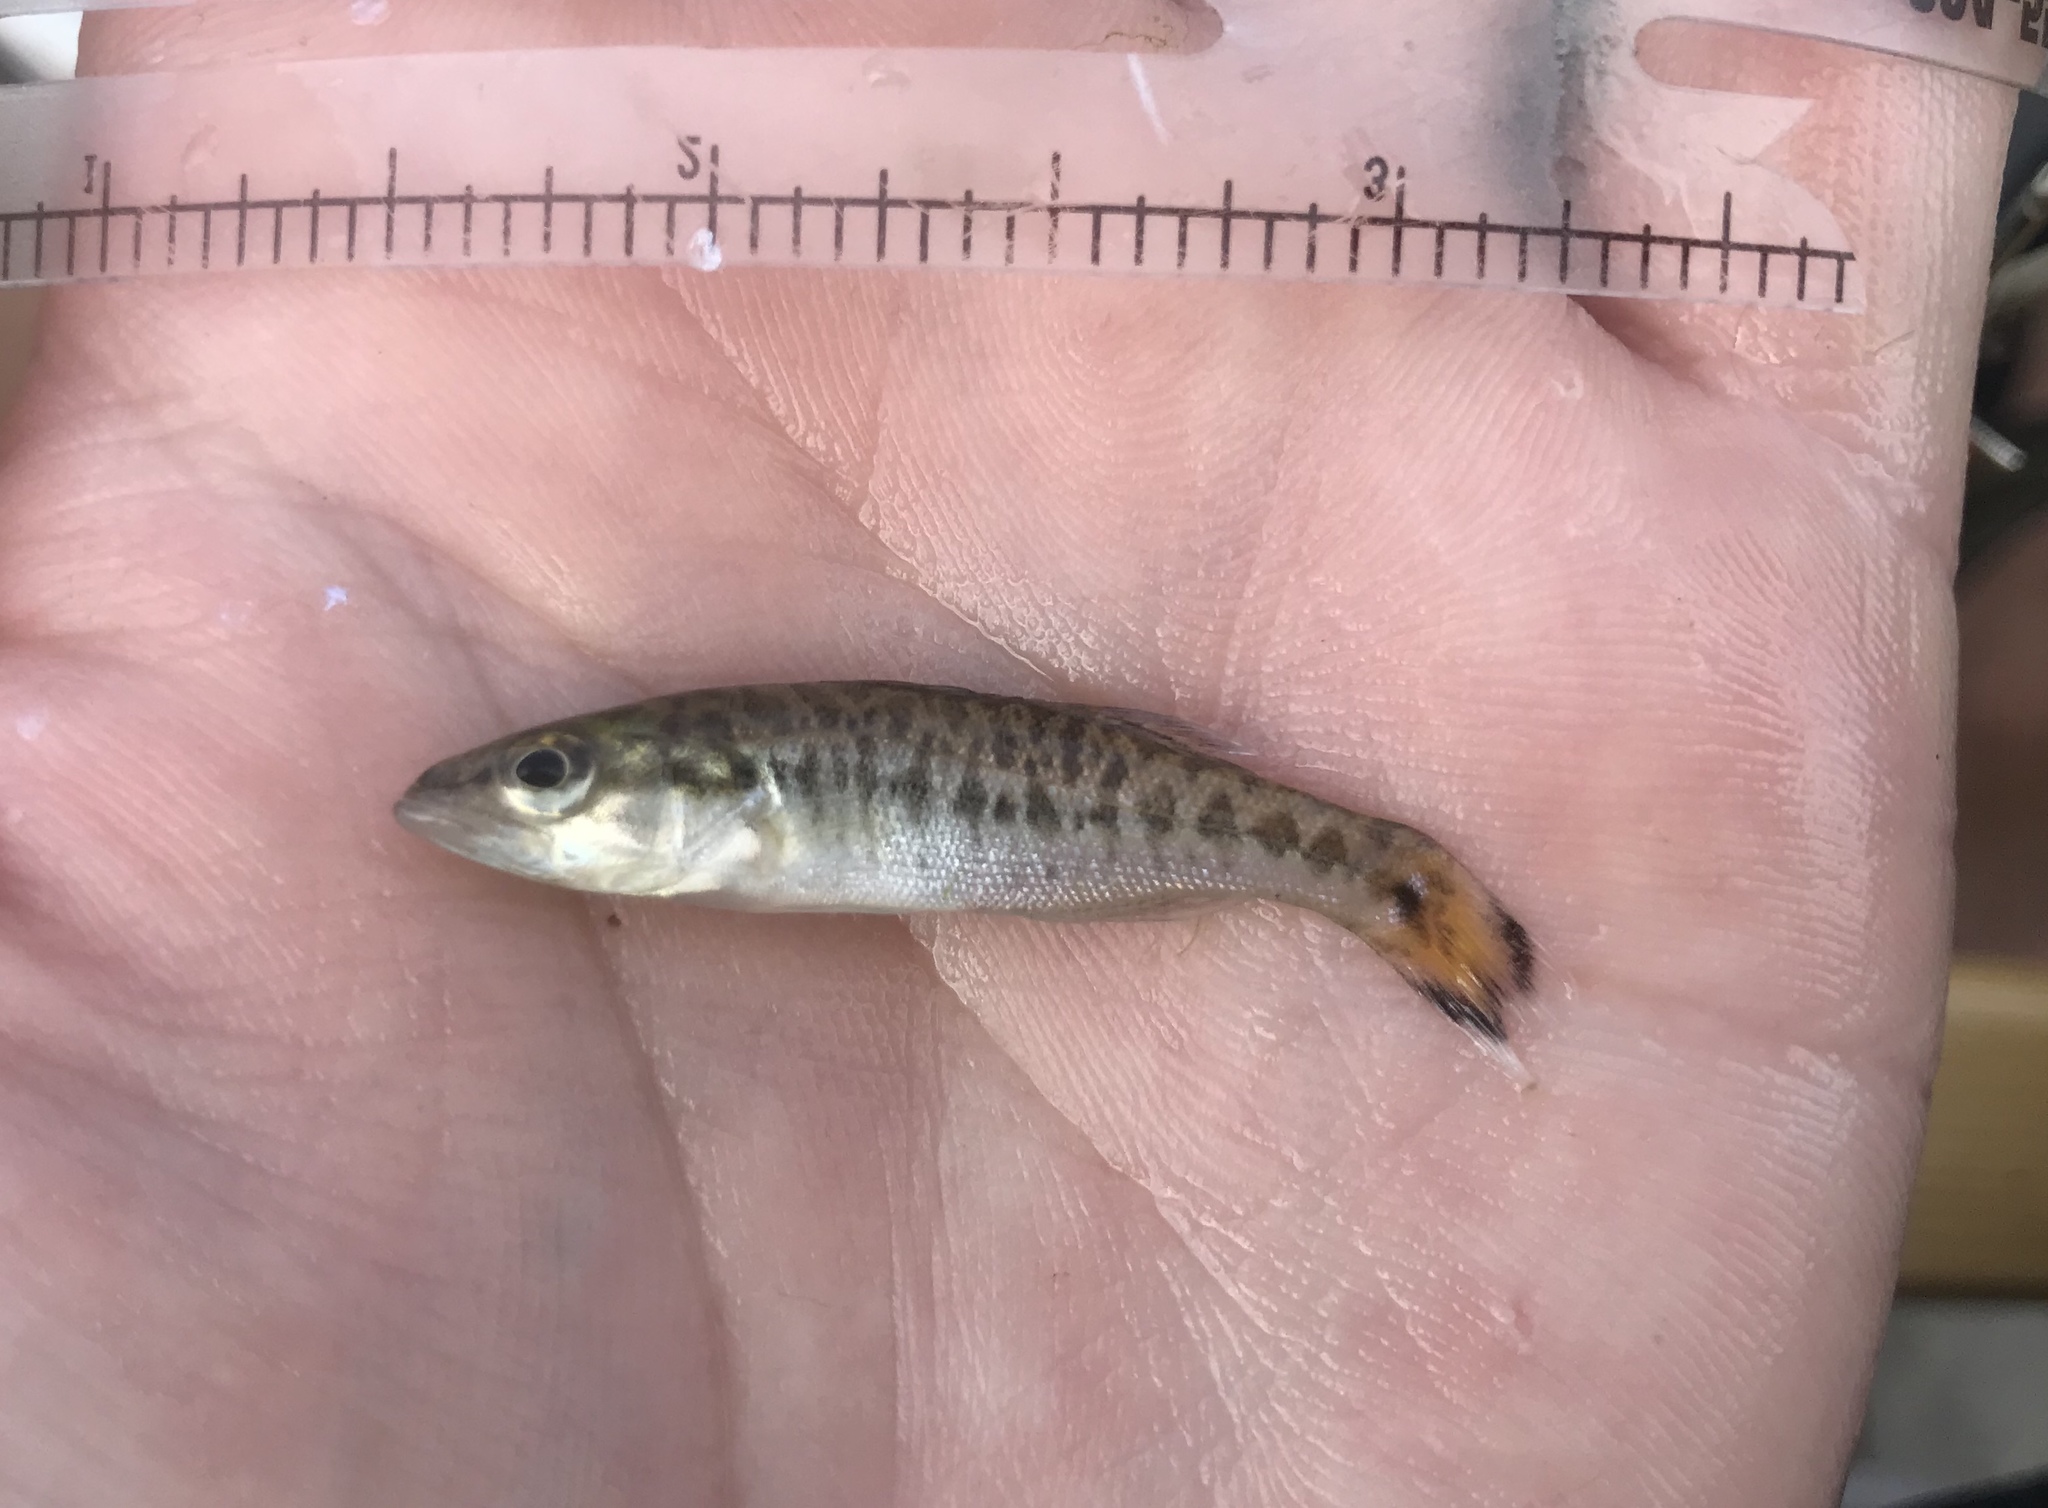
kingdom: Animalia
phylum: Chordata
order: Perciformes
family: Centrarchidae
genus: Micropterus
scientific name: Micropterus treculii
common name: Guadalupe bass
